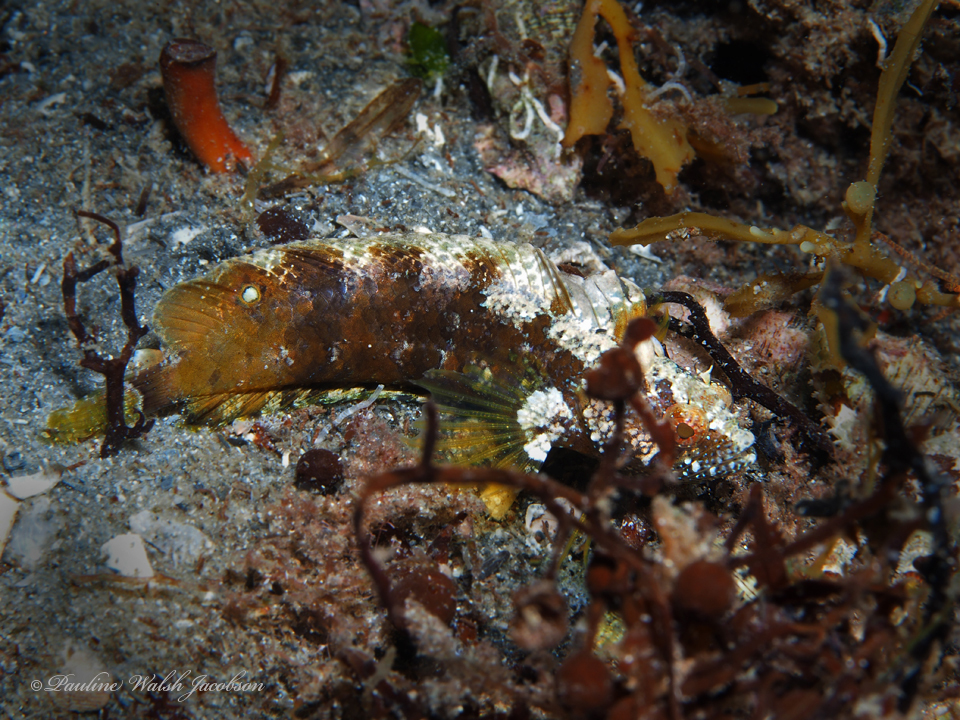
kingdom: Animalia
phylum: Chordata
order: Perciformes
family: Labrisomidae
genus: Paraclinus
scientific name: Paraclinus fasciatus
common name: Banded blenny
